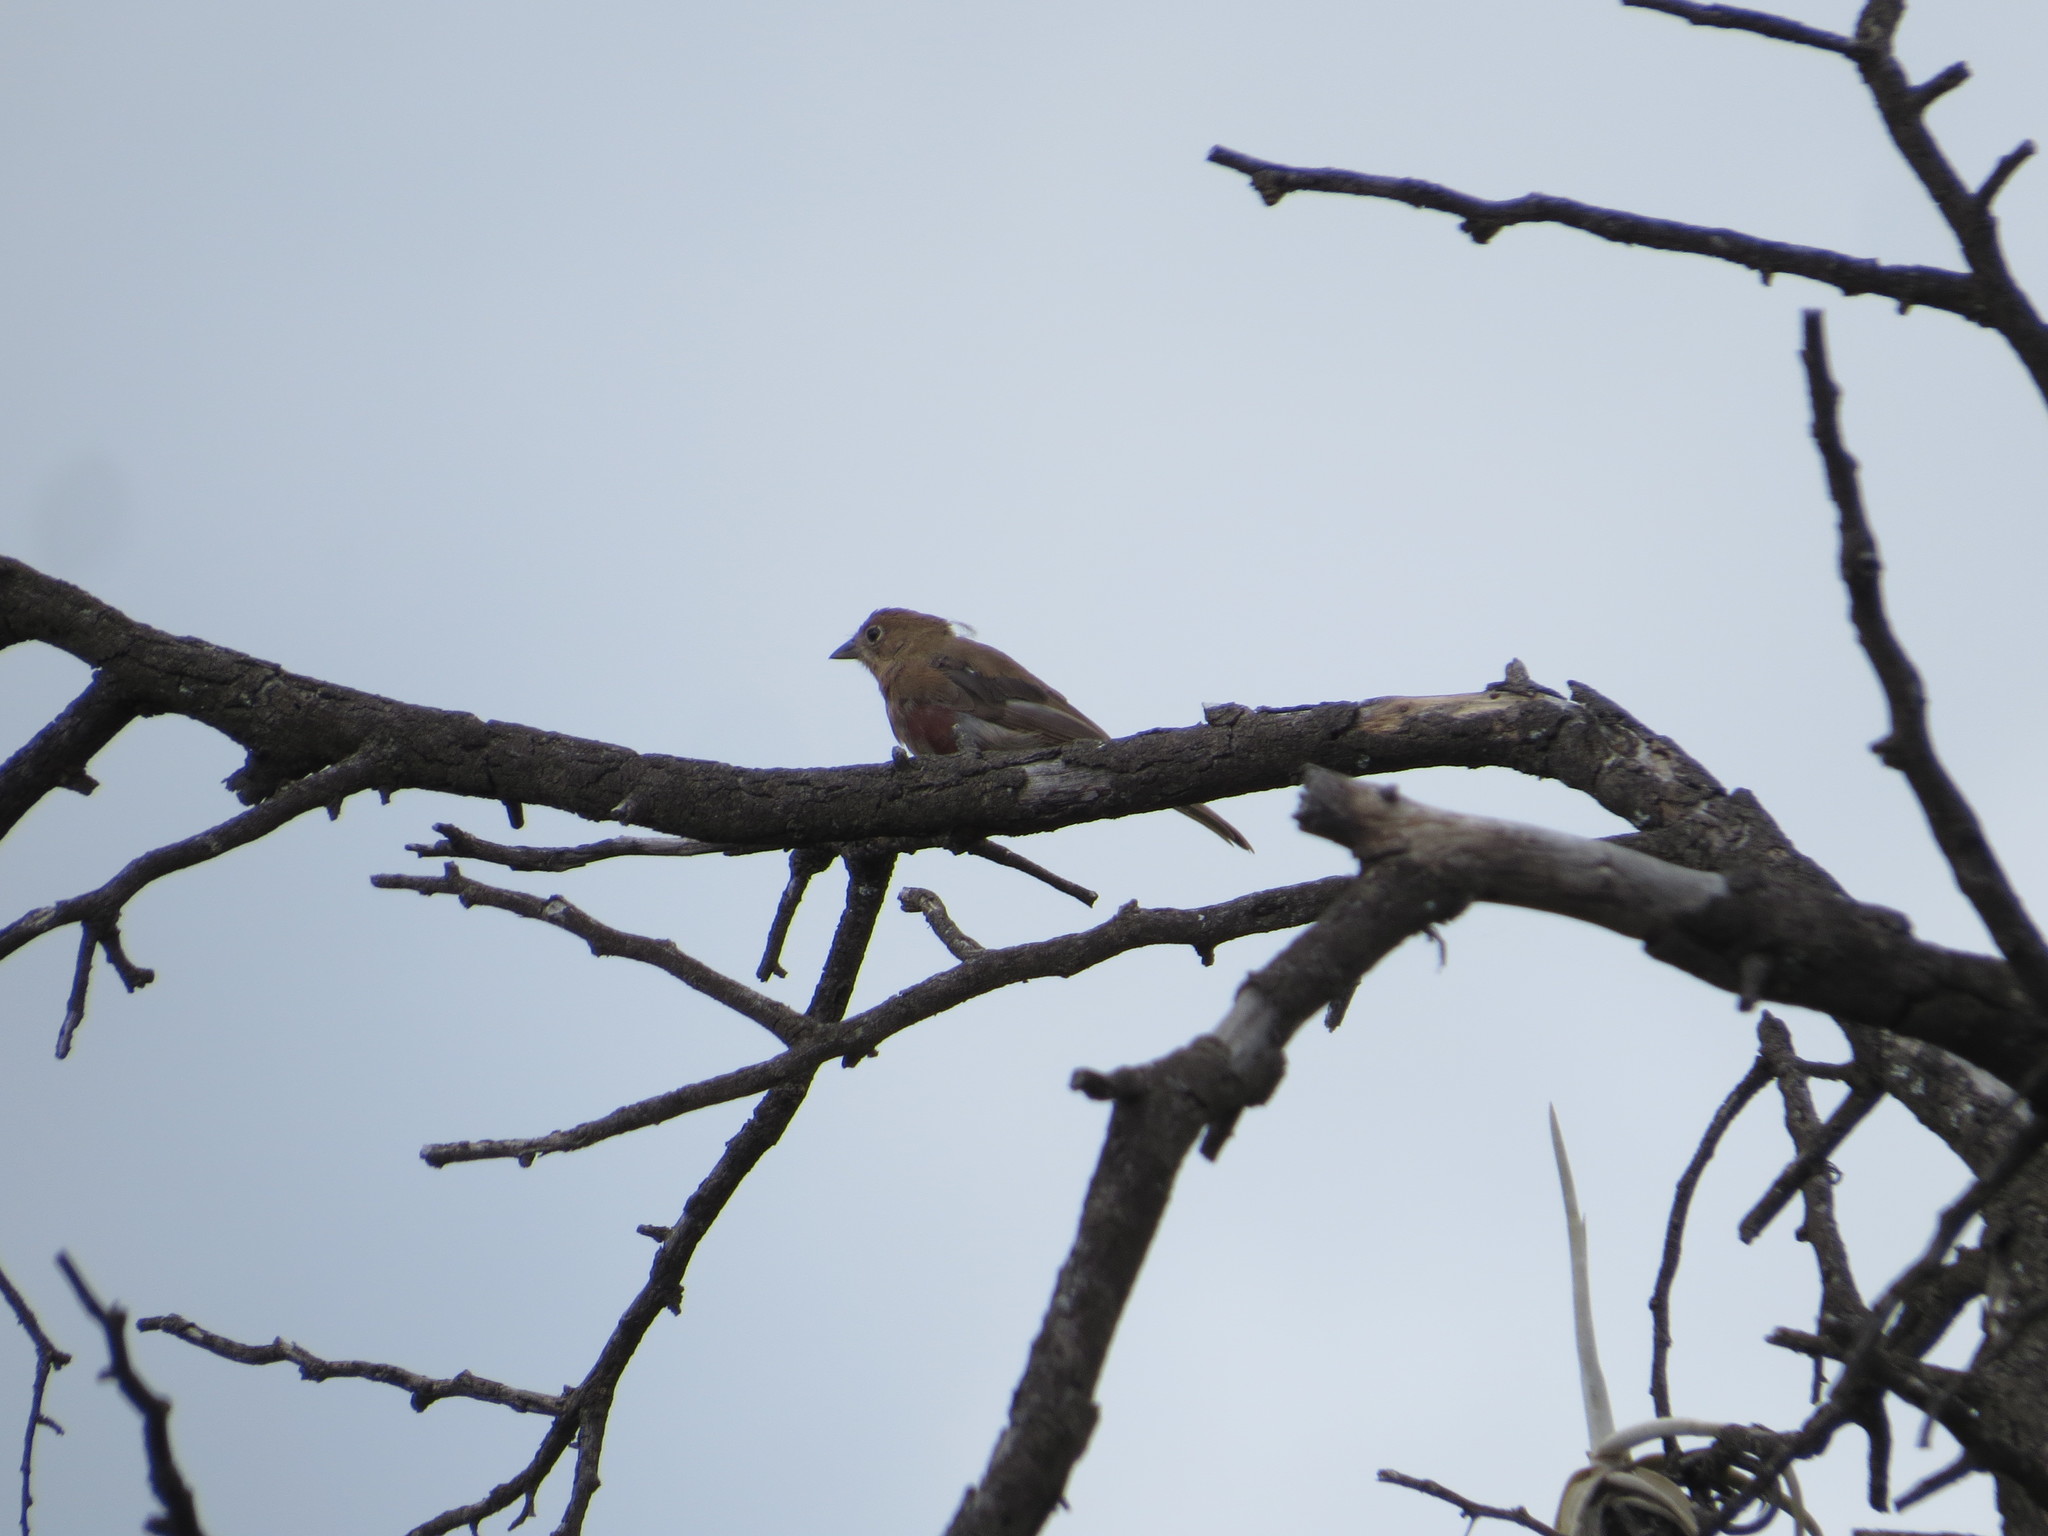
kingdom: Animalia
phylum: Chordata
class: Aves
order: Passeriformes
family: Thraupidae
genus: Coryphospingus
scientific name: Coryphospingus cucullatus
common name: Red pileated finch
